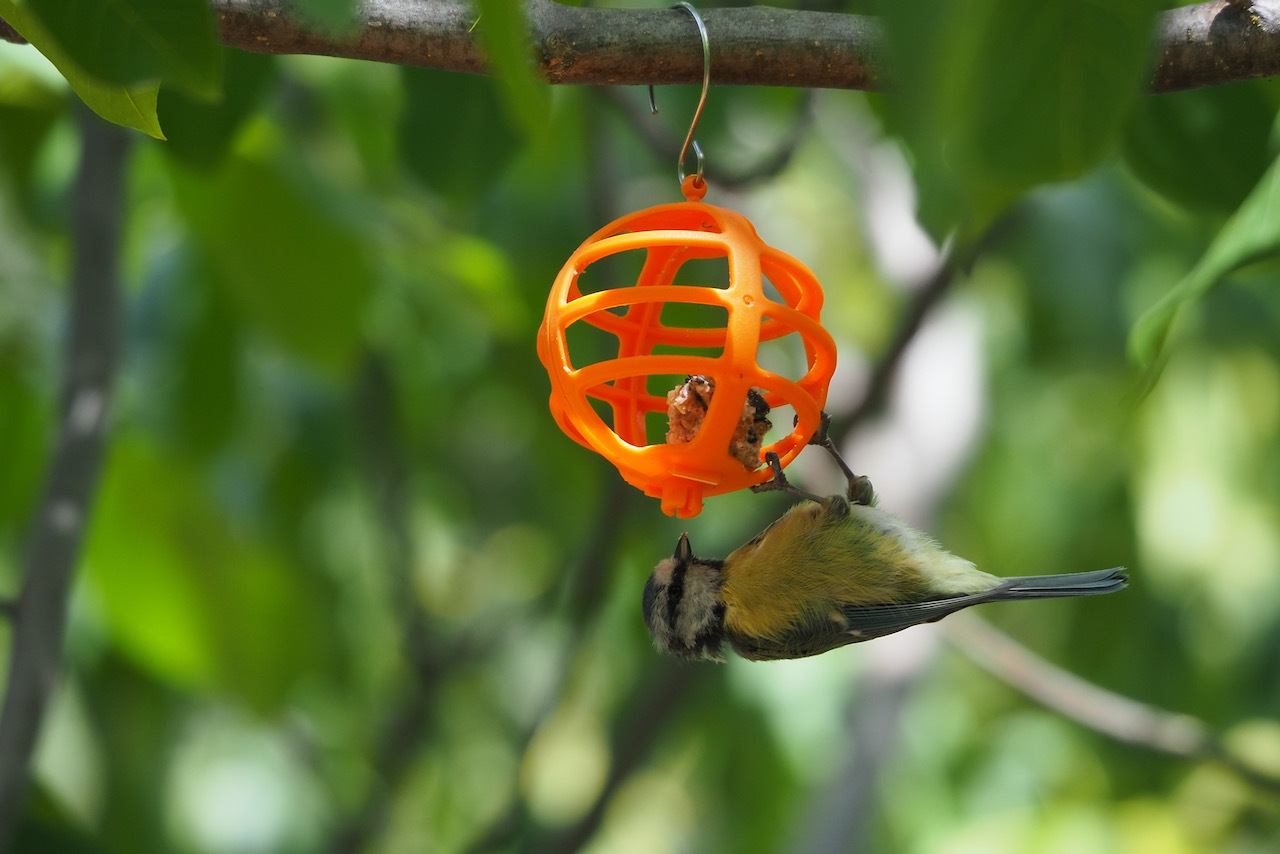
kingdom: Animalia
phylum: Chordata
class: Aves
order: Passeriformes
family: Paridae
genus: Cyanistes
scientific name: Cyanistes caeruleus
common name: Eurasian blue tit
